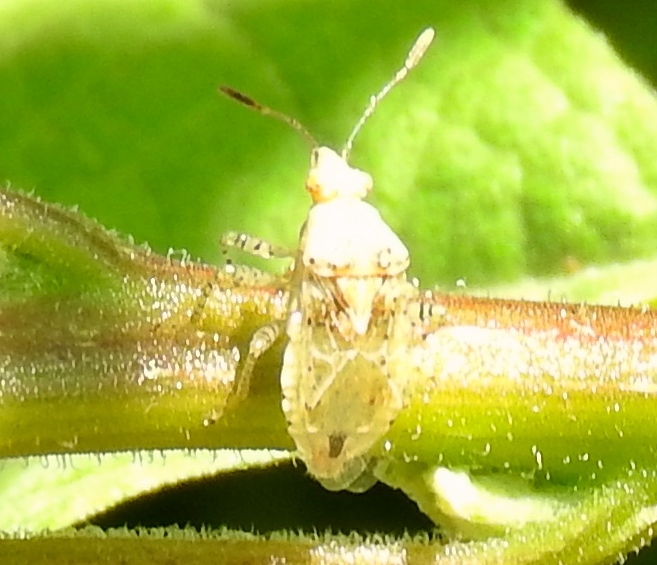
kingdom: Animalia
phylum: Arthropoda
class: Insecta
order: Hemiptera
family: Rhopalidae
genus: Niesthrea
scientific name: Niesthrea
